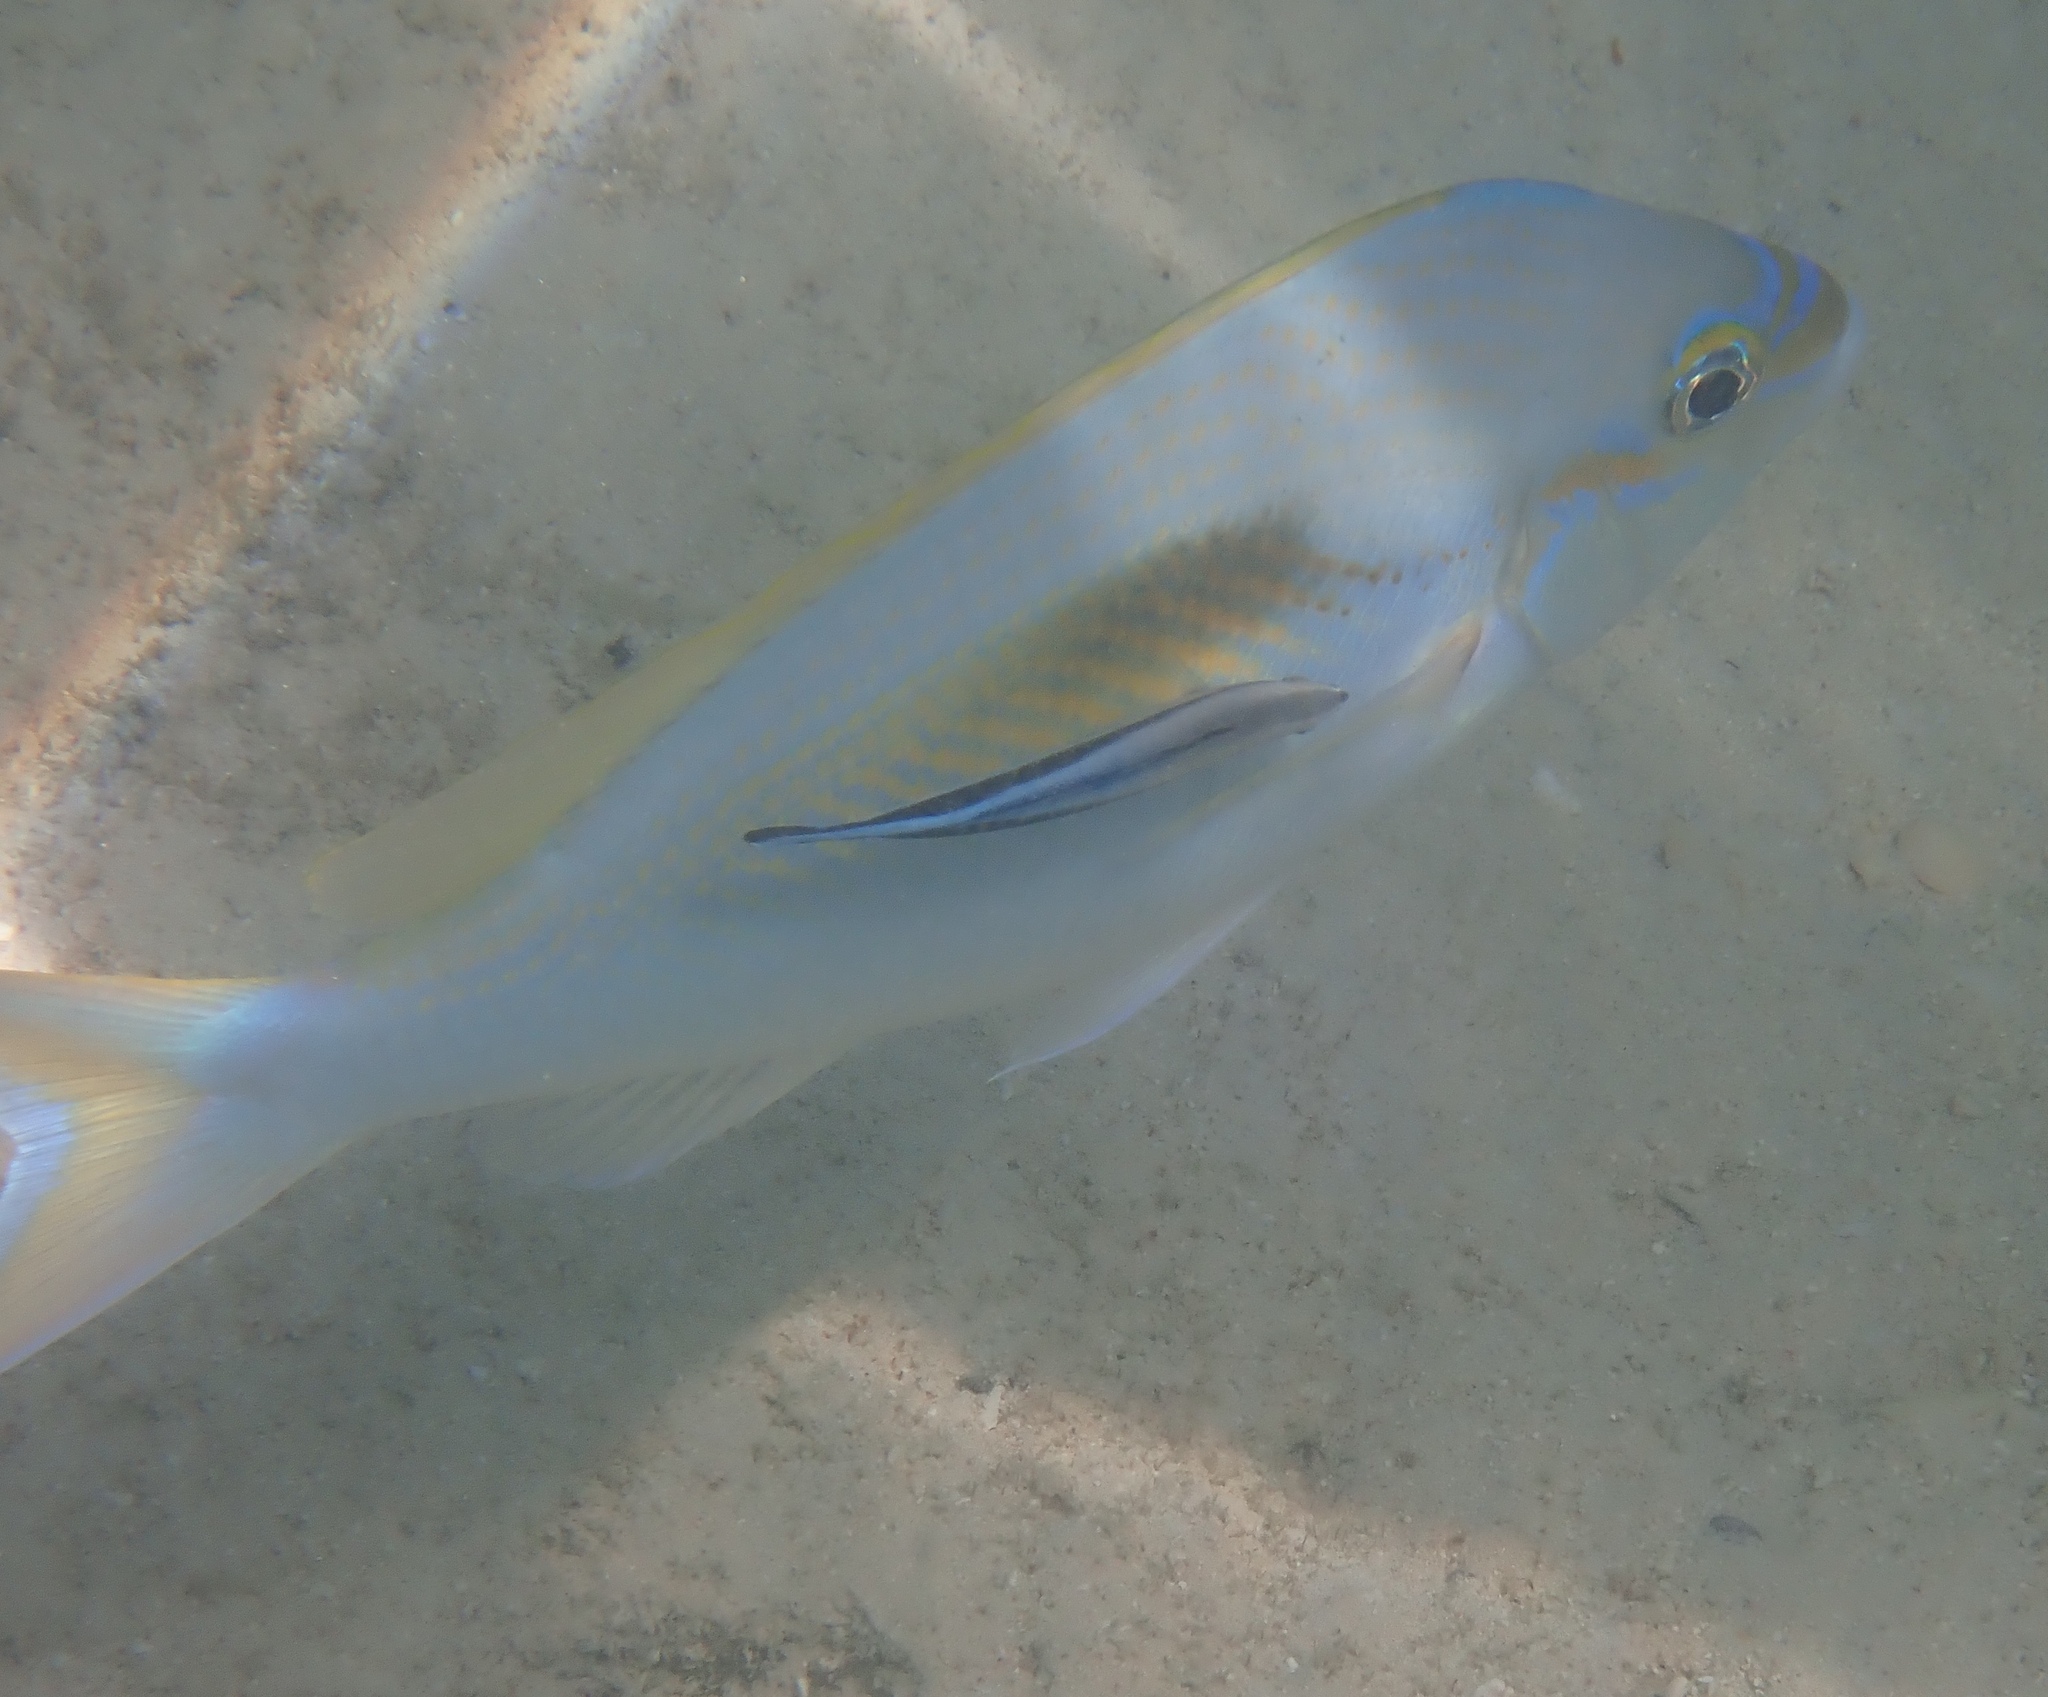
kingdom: Animalia
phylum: Chordata
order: Perciformes
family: Nemipteridae
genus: Scolopsis
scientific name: Scolopsis monogramma
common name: Monogrammed monocle bream
